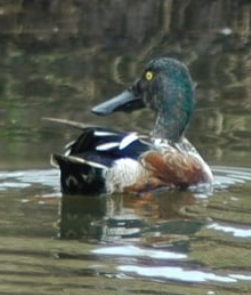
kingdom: Animalia
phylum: Chordata
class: Aves
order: Anseriformes
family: Anatidae
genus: Spatula
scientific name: Spatula clypeata
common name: Northern shoveler
